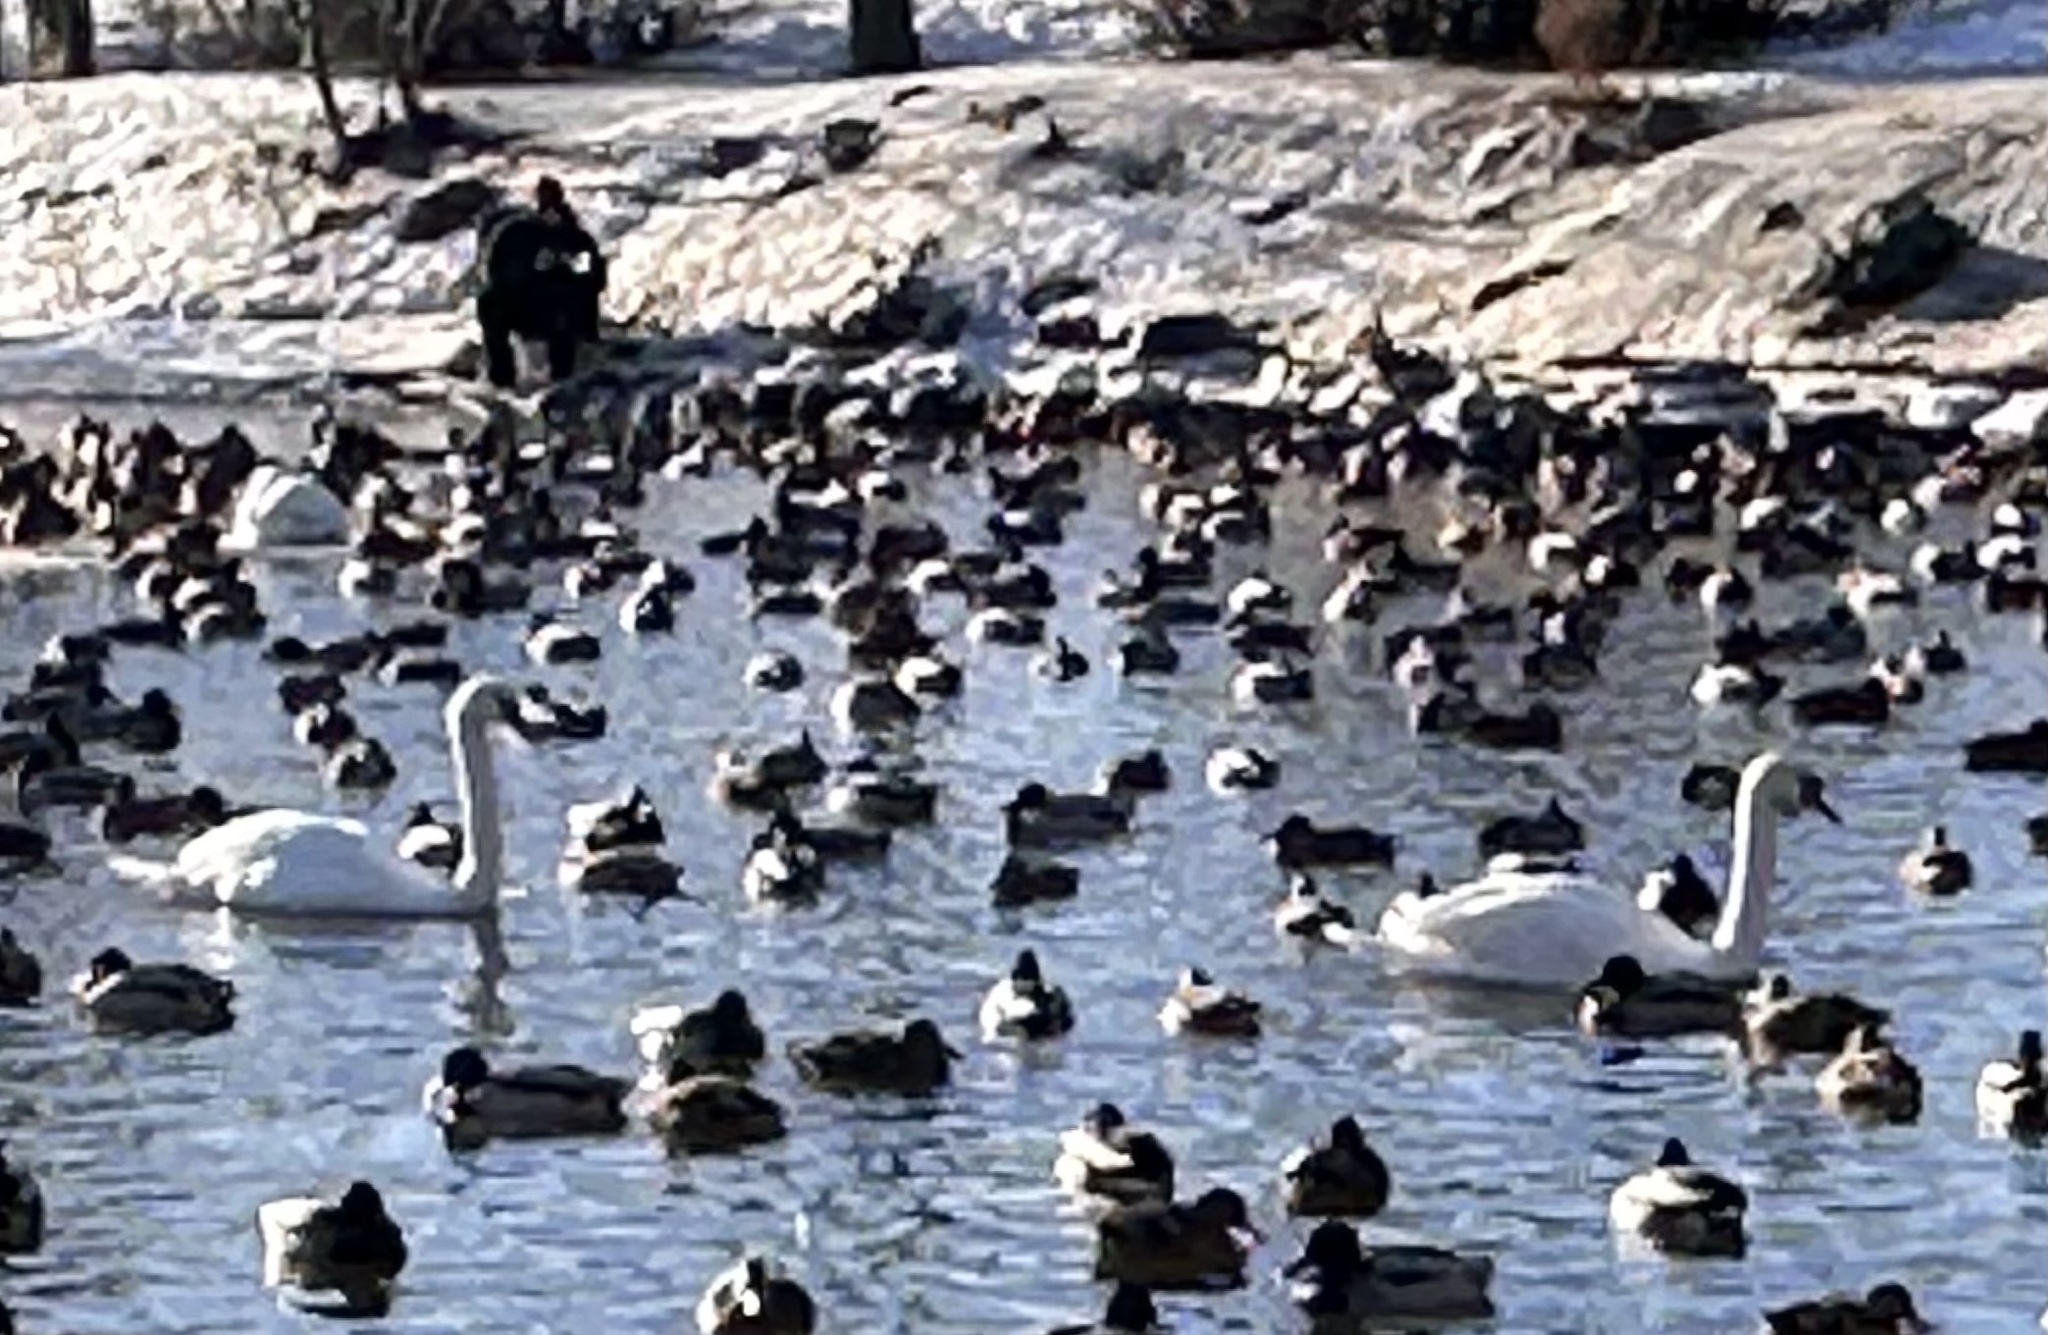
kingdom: Animalia
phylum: Chordata
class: Aves
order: Anseriformes
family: Anatidae
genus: Cygnus
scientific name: Cygnus olor
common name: Mute swan
